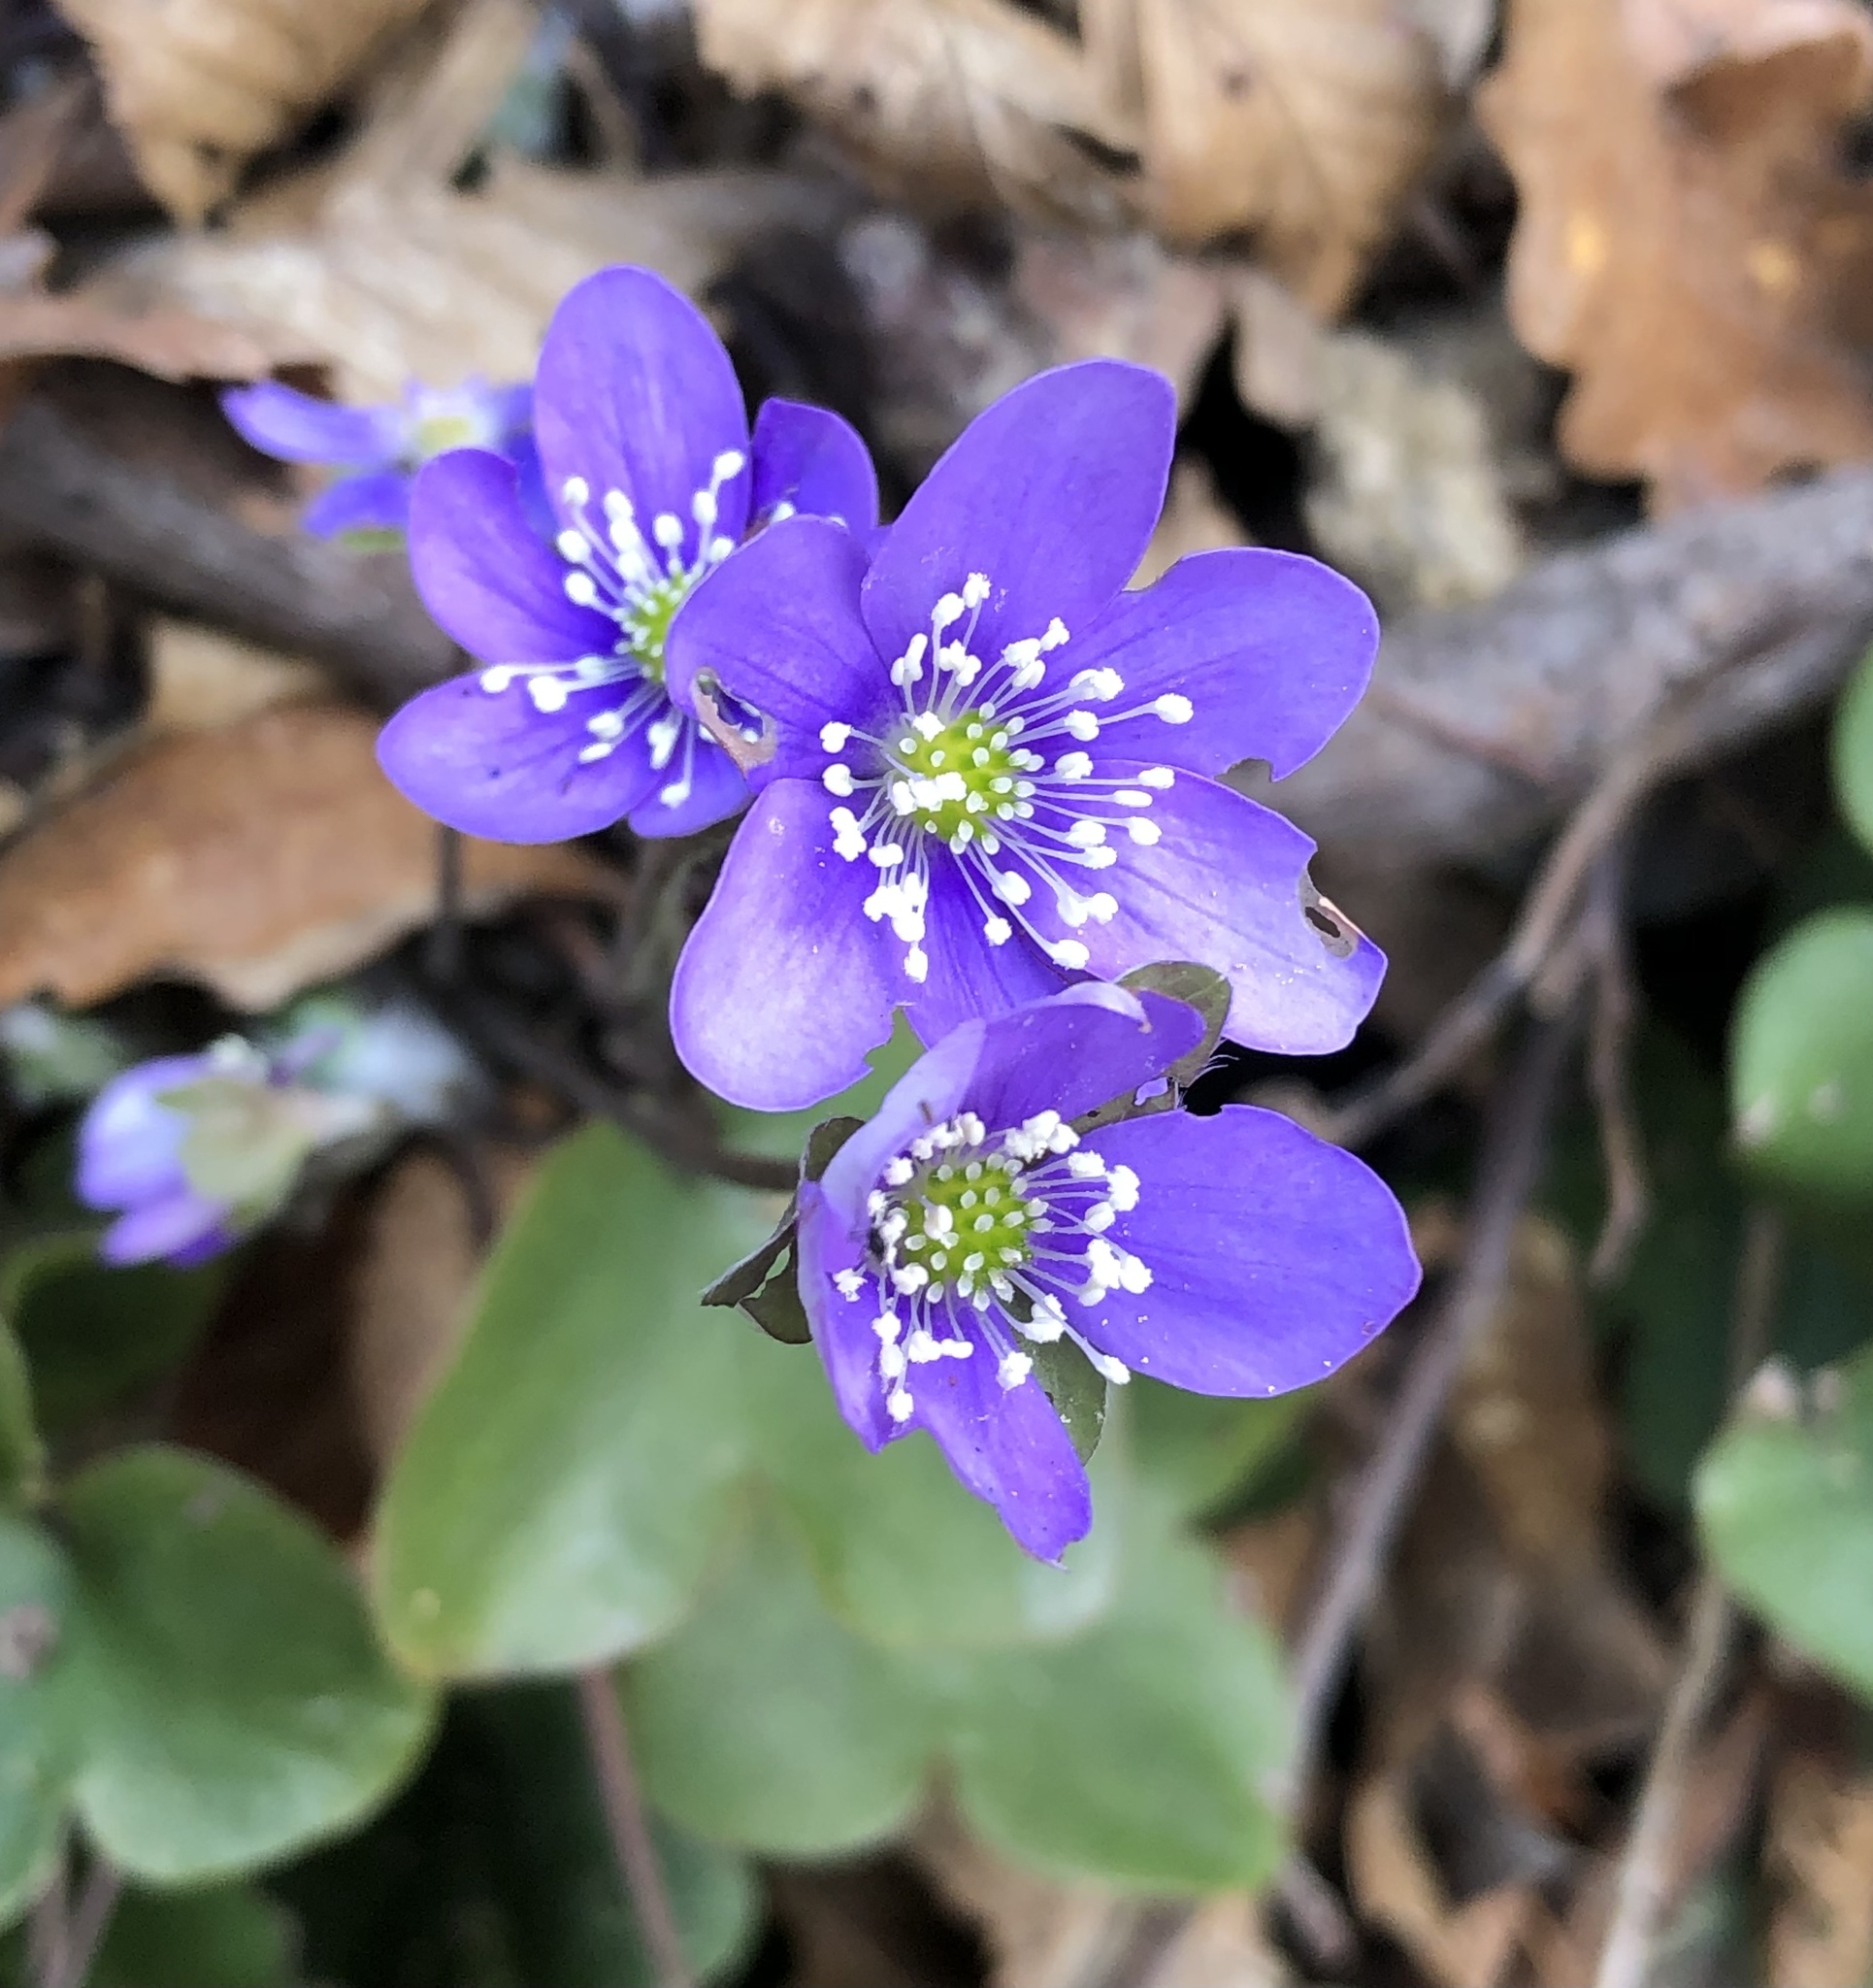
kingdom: Plantae
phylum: Tracheophyta
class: Magnoliopsida
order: Ranunculales
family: Ranunculaceae
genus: Hepatica
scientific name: Hepatica nobilis
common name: Liverleaf
